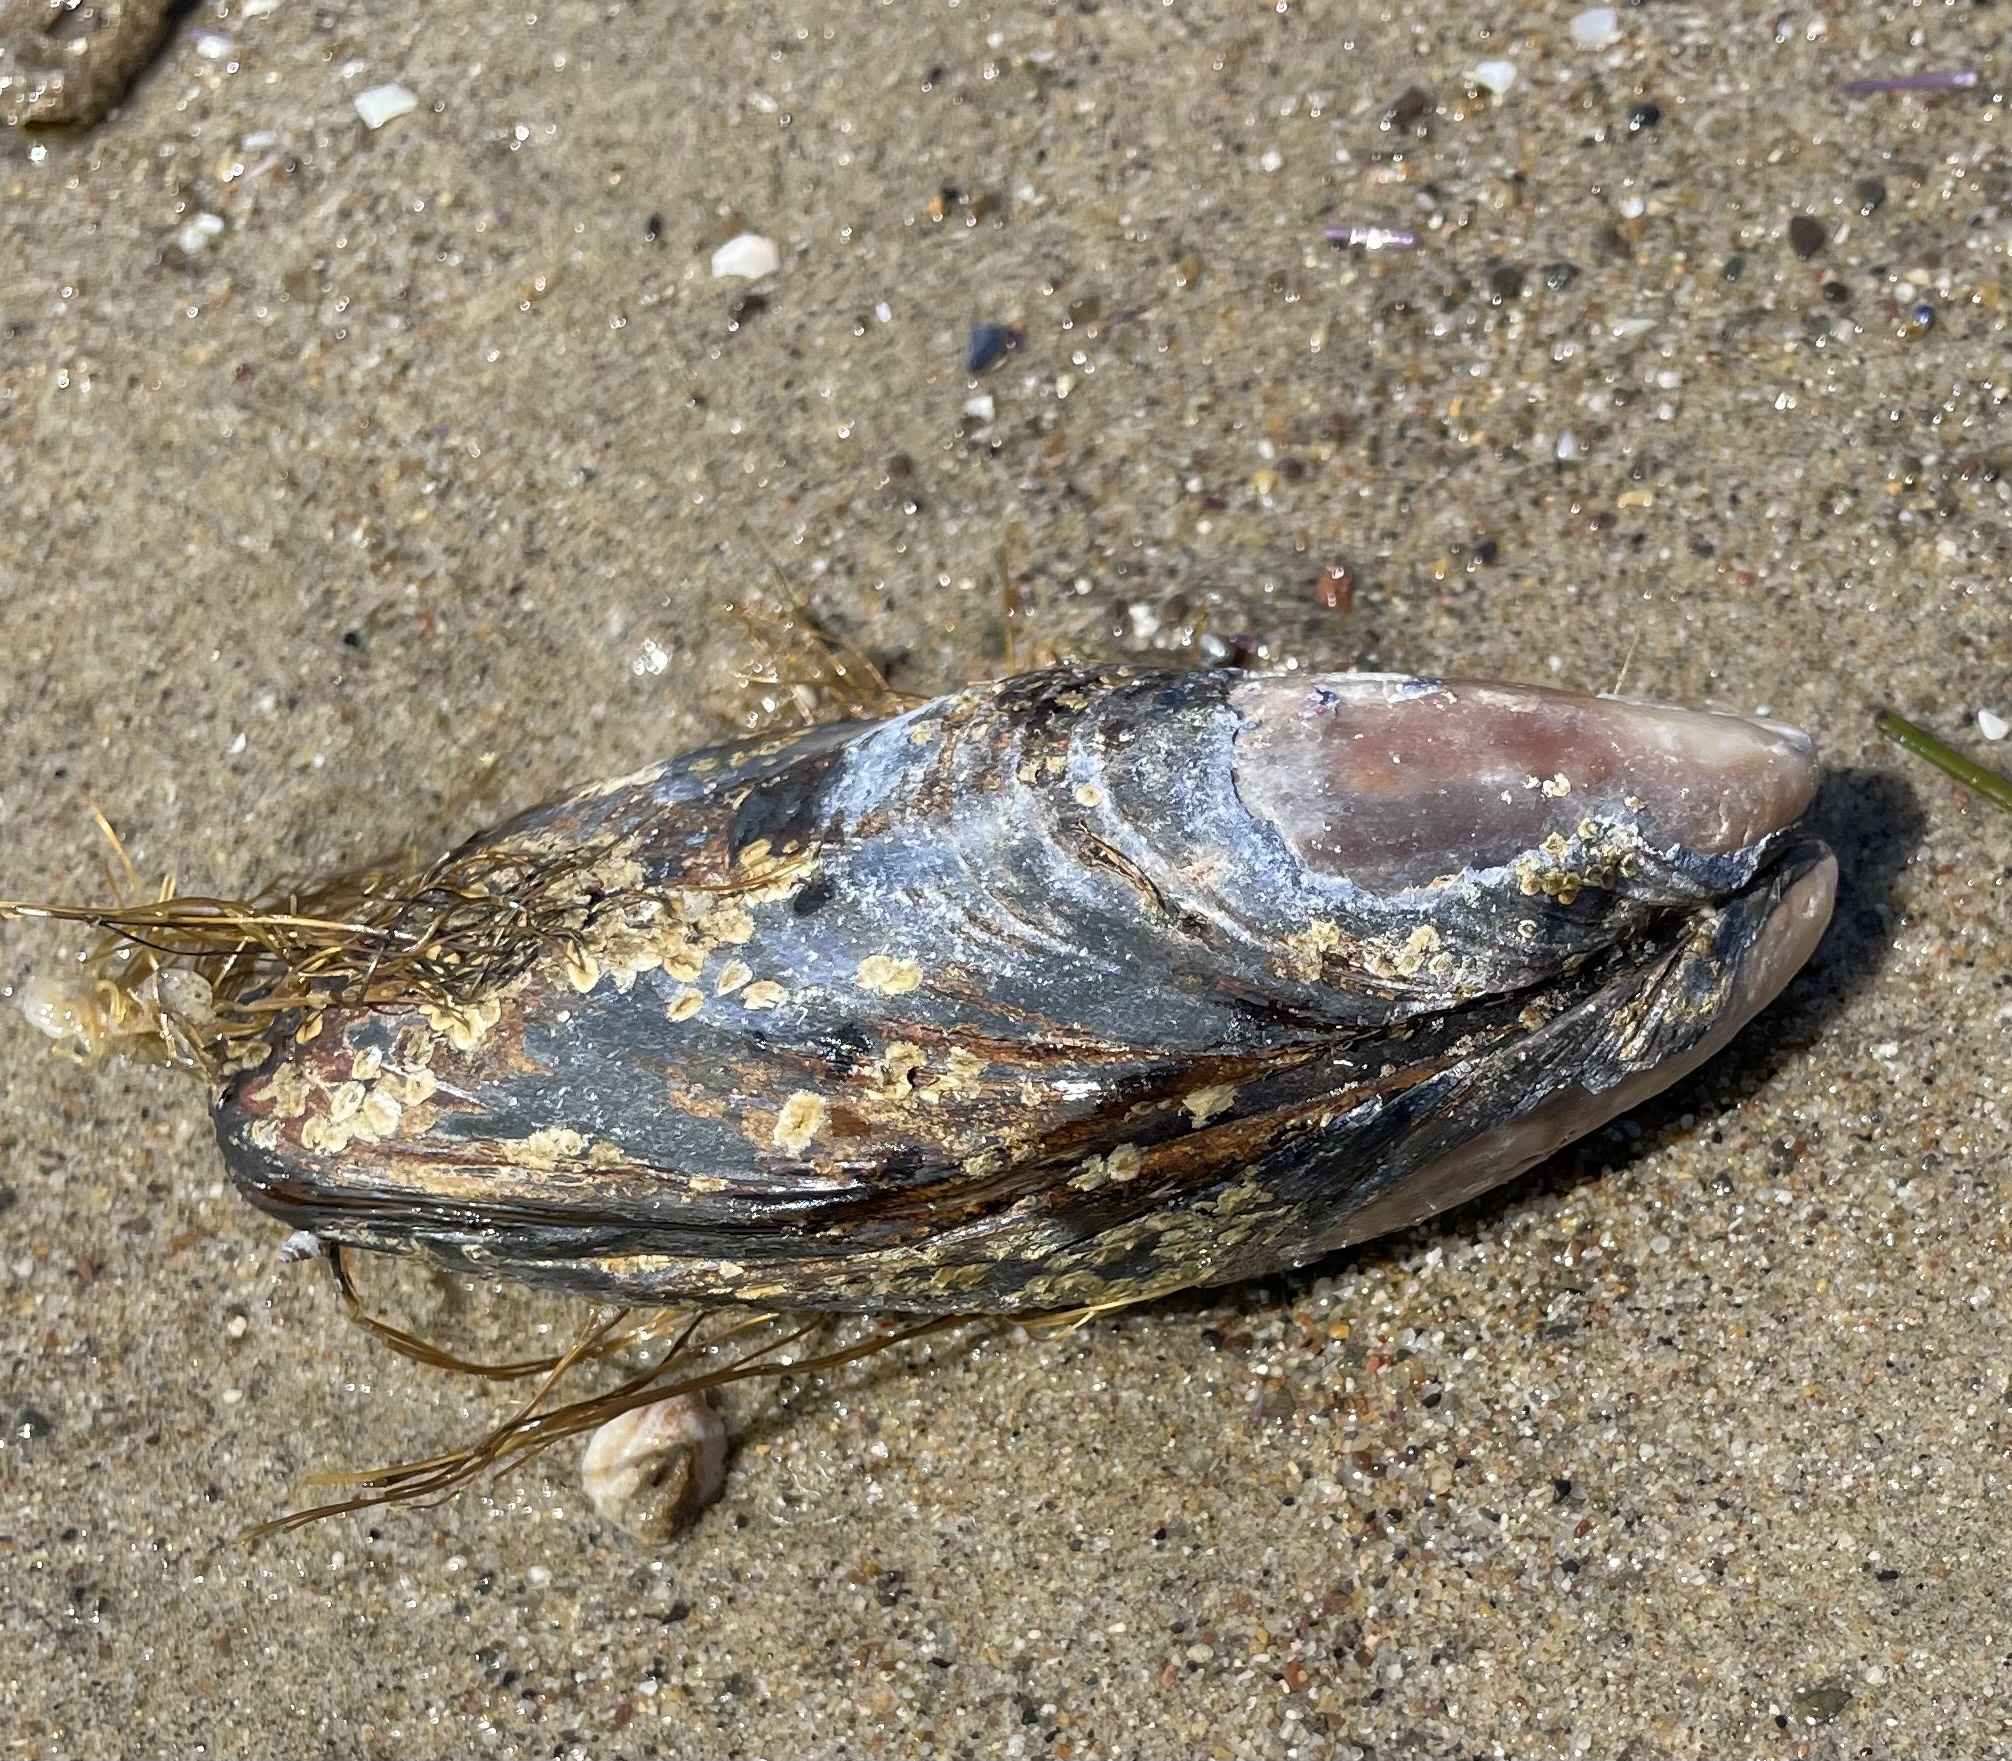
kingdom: Animalia
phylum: Mollusca
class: Bivalvia
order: Mytilida
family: Mytilidae
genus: Mytilus
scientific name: Mytilus californianus
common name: California mussel
